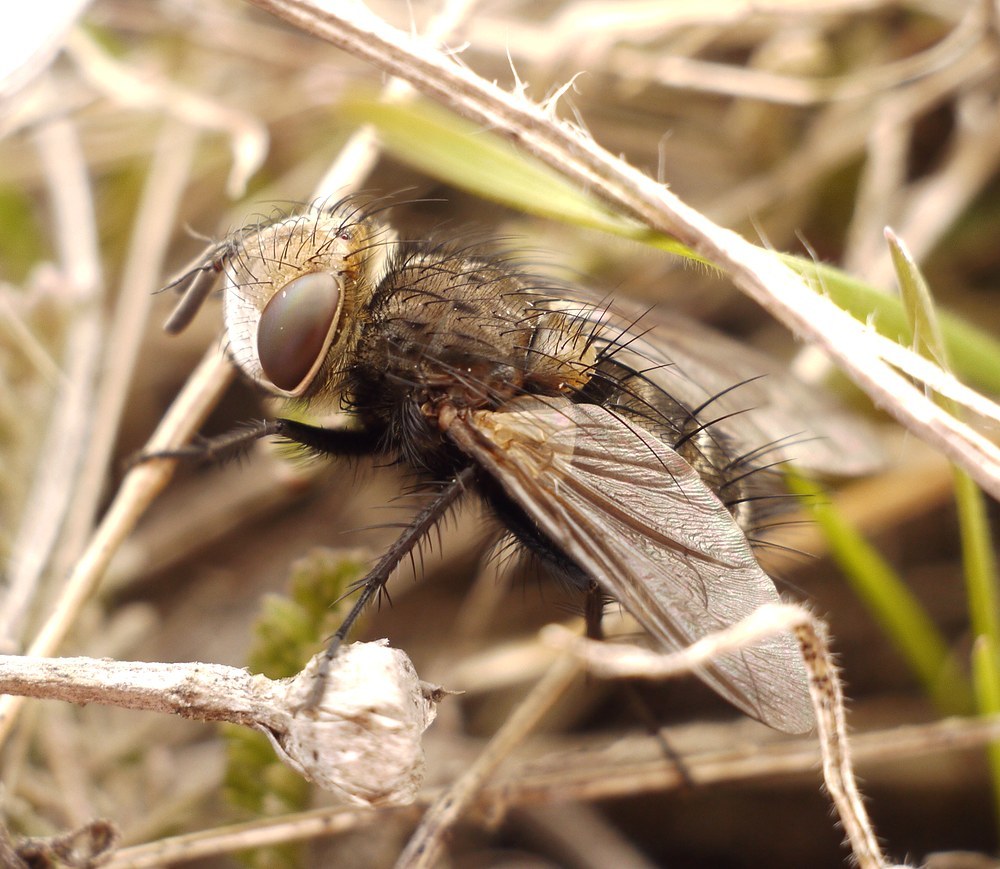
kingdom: Animalia
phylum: Arthropoda
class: Insecta
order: Diptera
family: Tachinidae
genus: Gonia
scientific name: Gonia picea
